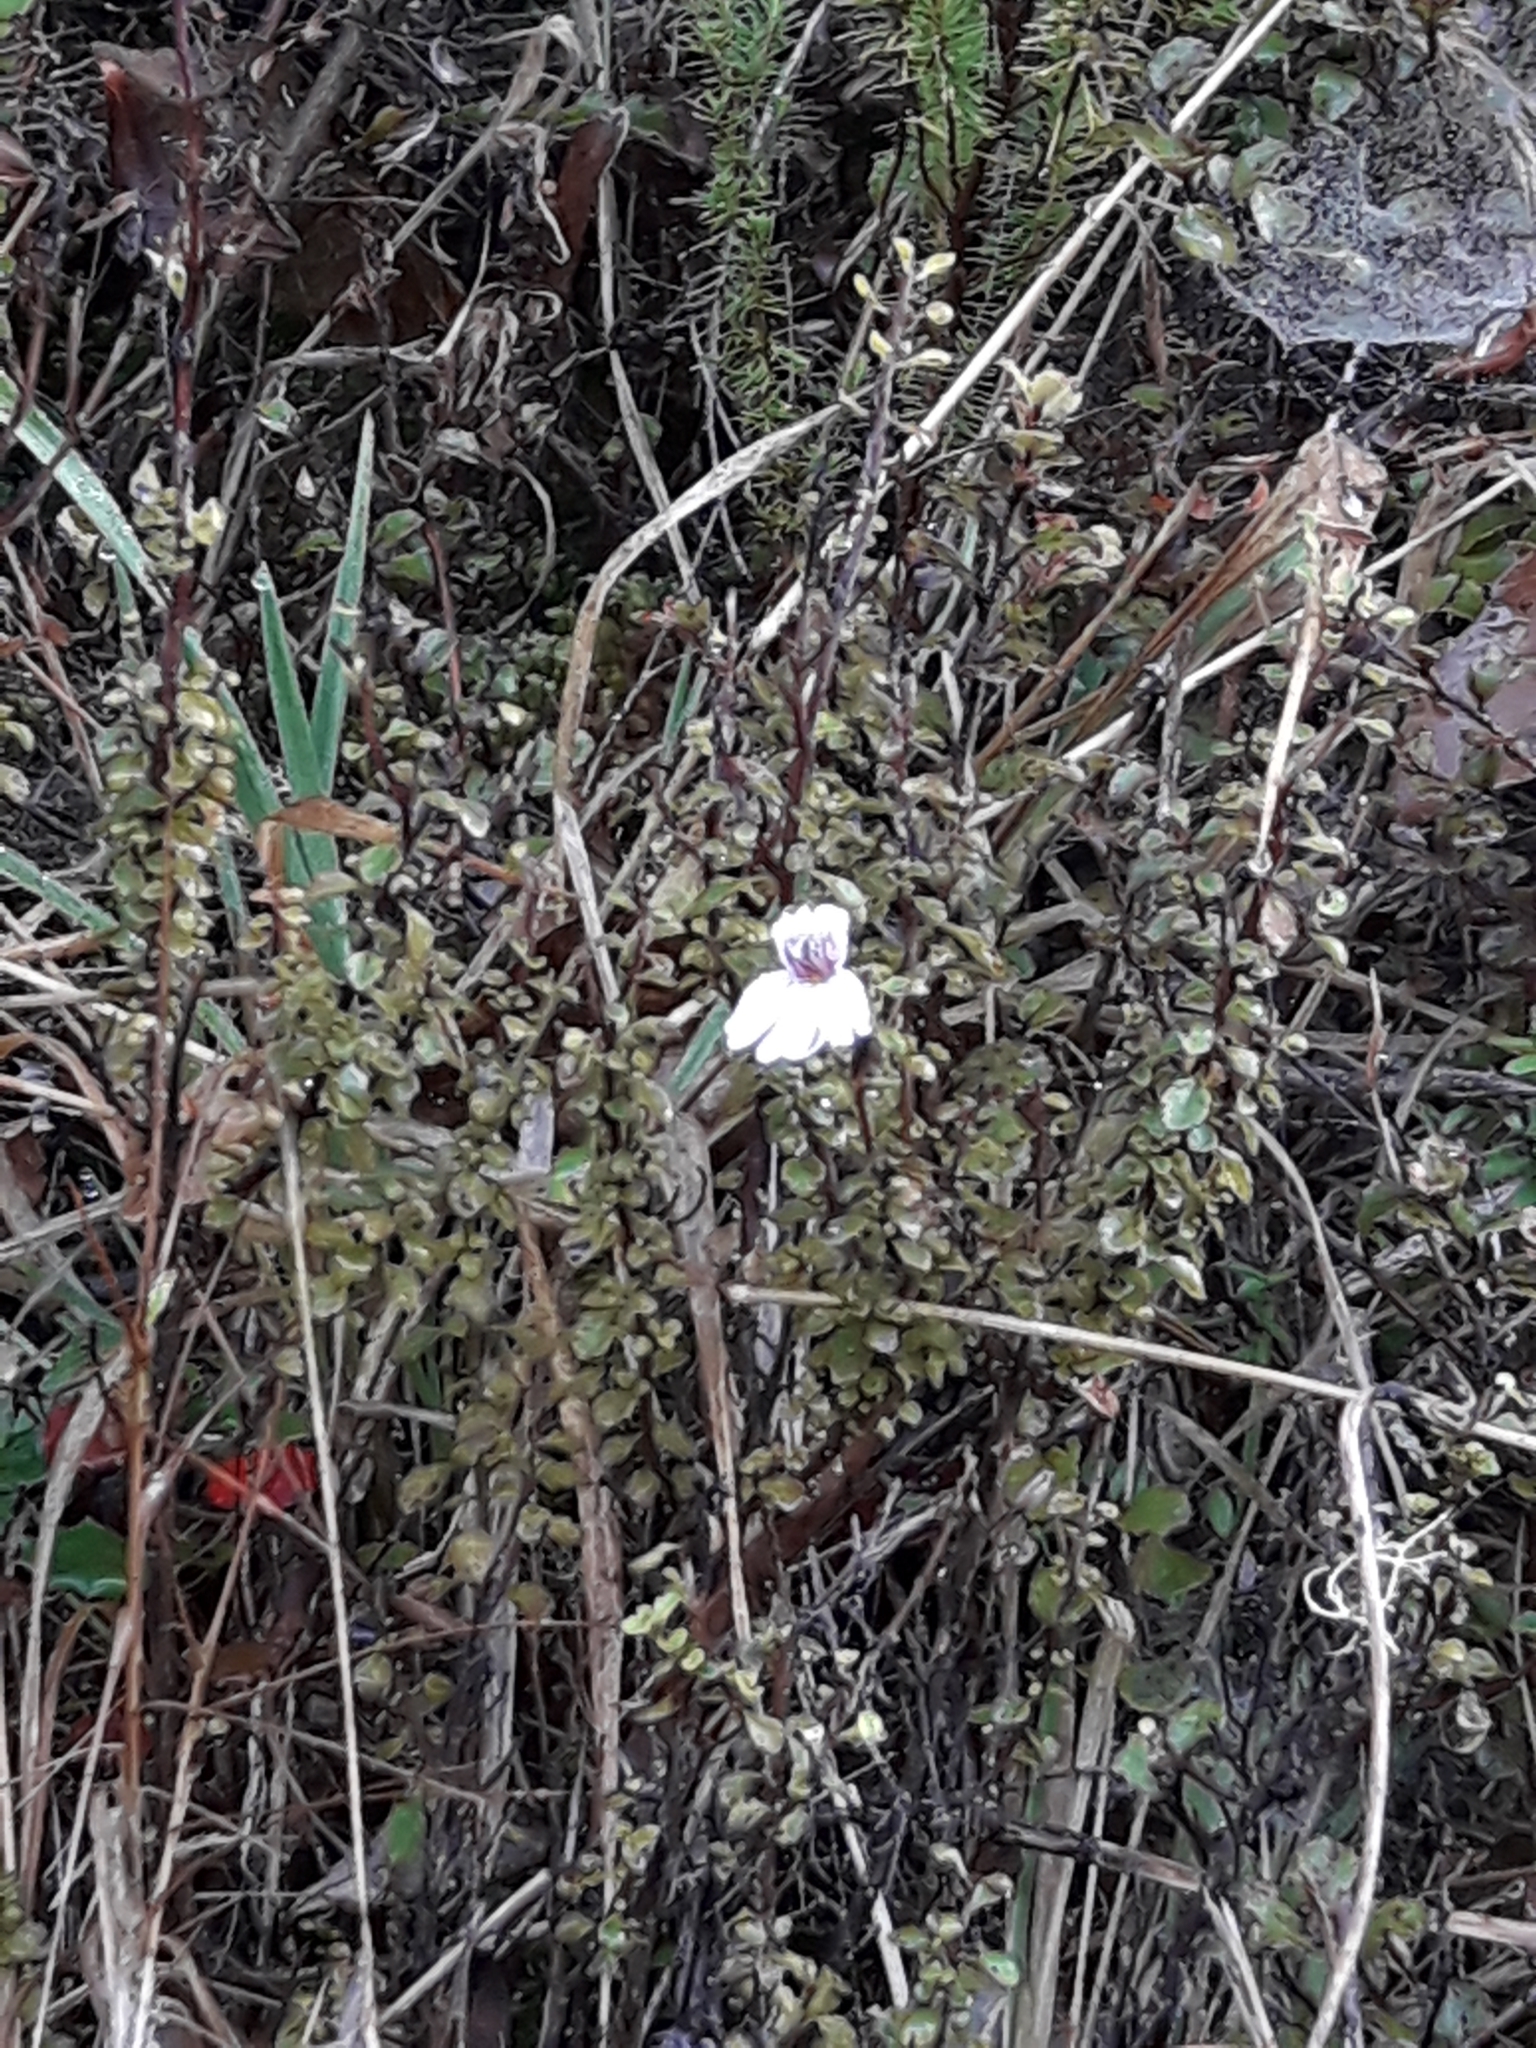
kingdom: Plantae
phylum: Tracheophyta
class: Magnoliopsida
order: Lamiales
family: Orobanchaceae
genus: Euphrasia
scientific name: Euphrasia cuneata
